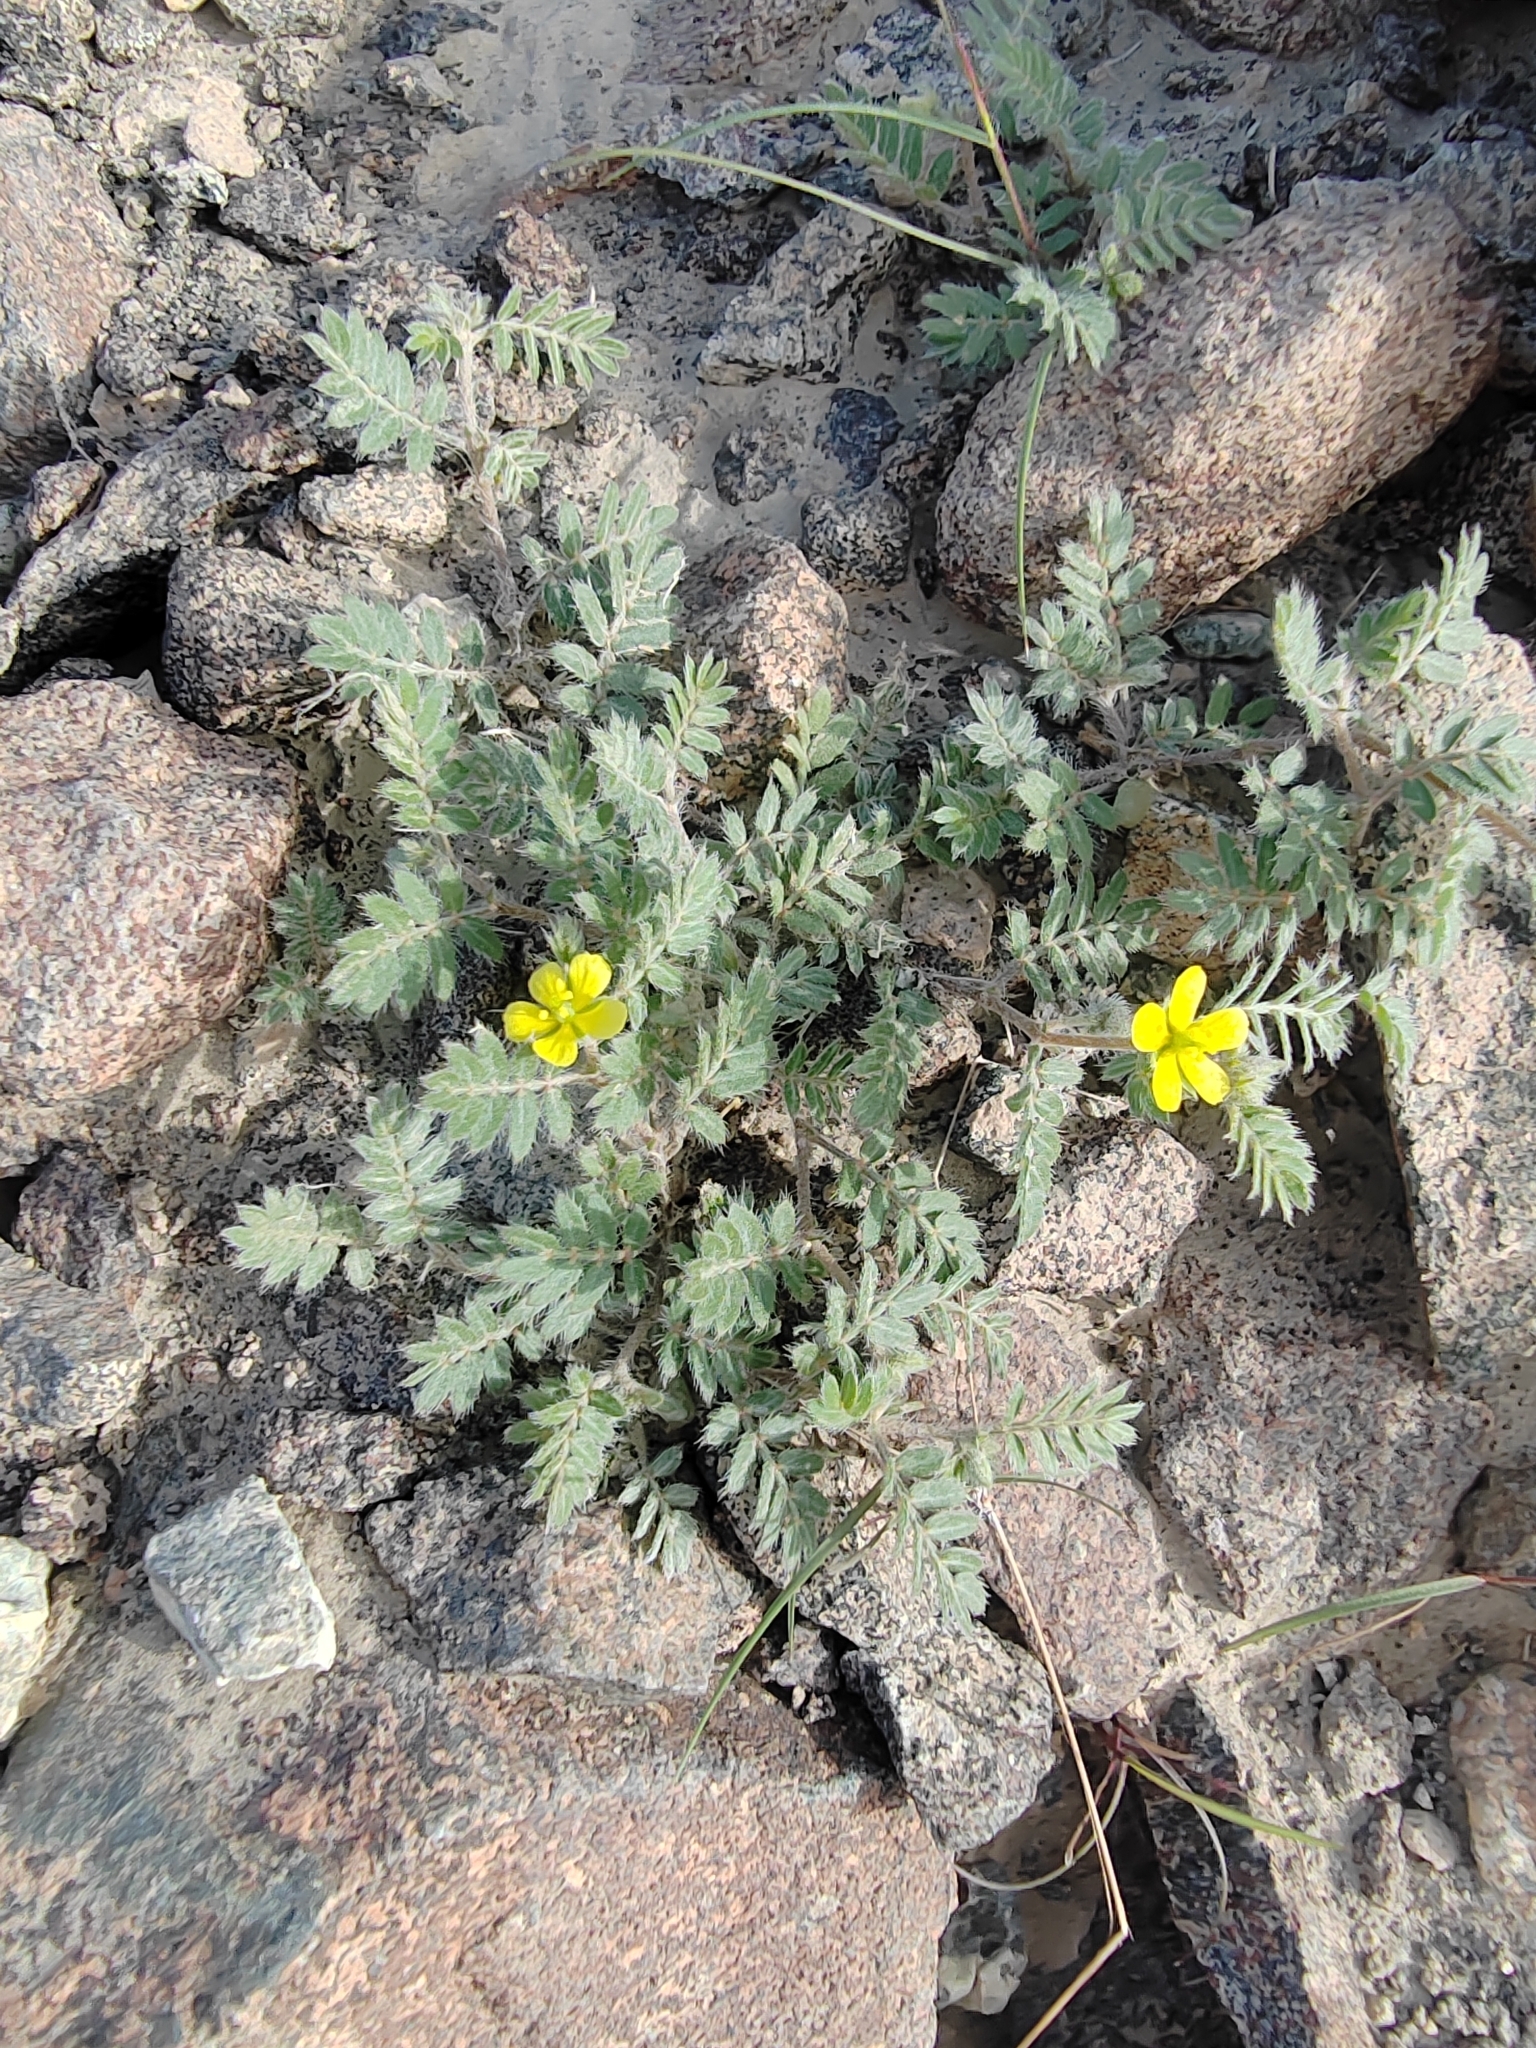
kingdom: Plantae
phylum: Tracheophyta
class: Magnoliopsida
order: Zygophyllales
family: Zygophyllaceae
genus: Tribulus
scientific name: Tribulus terrestris
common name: Puncturevine
